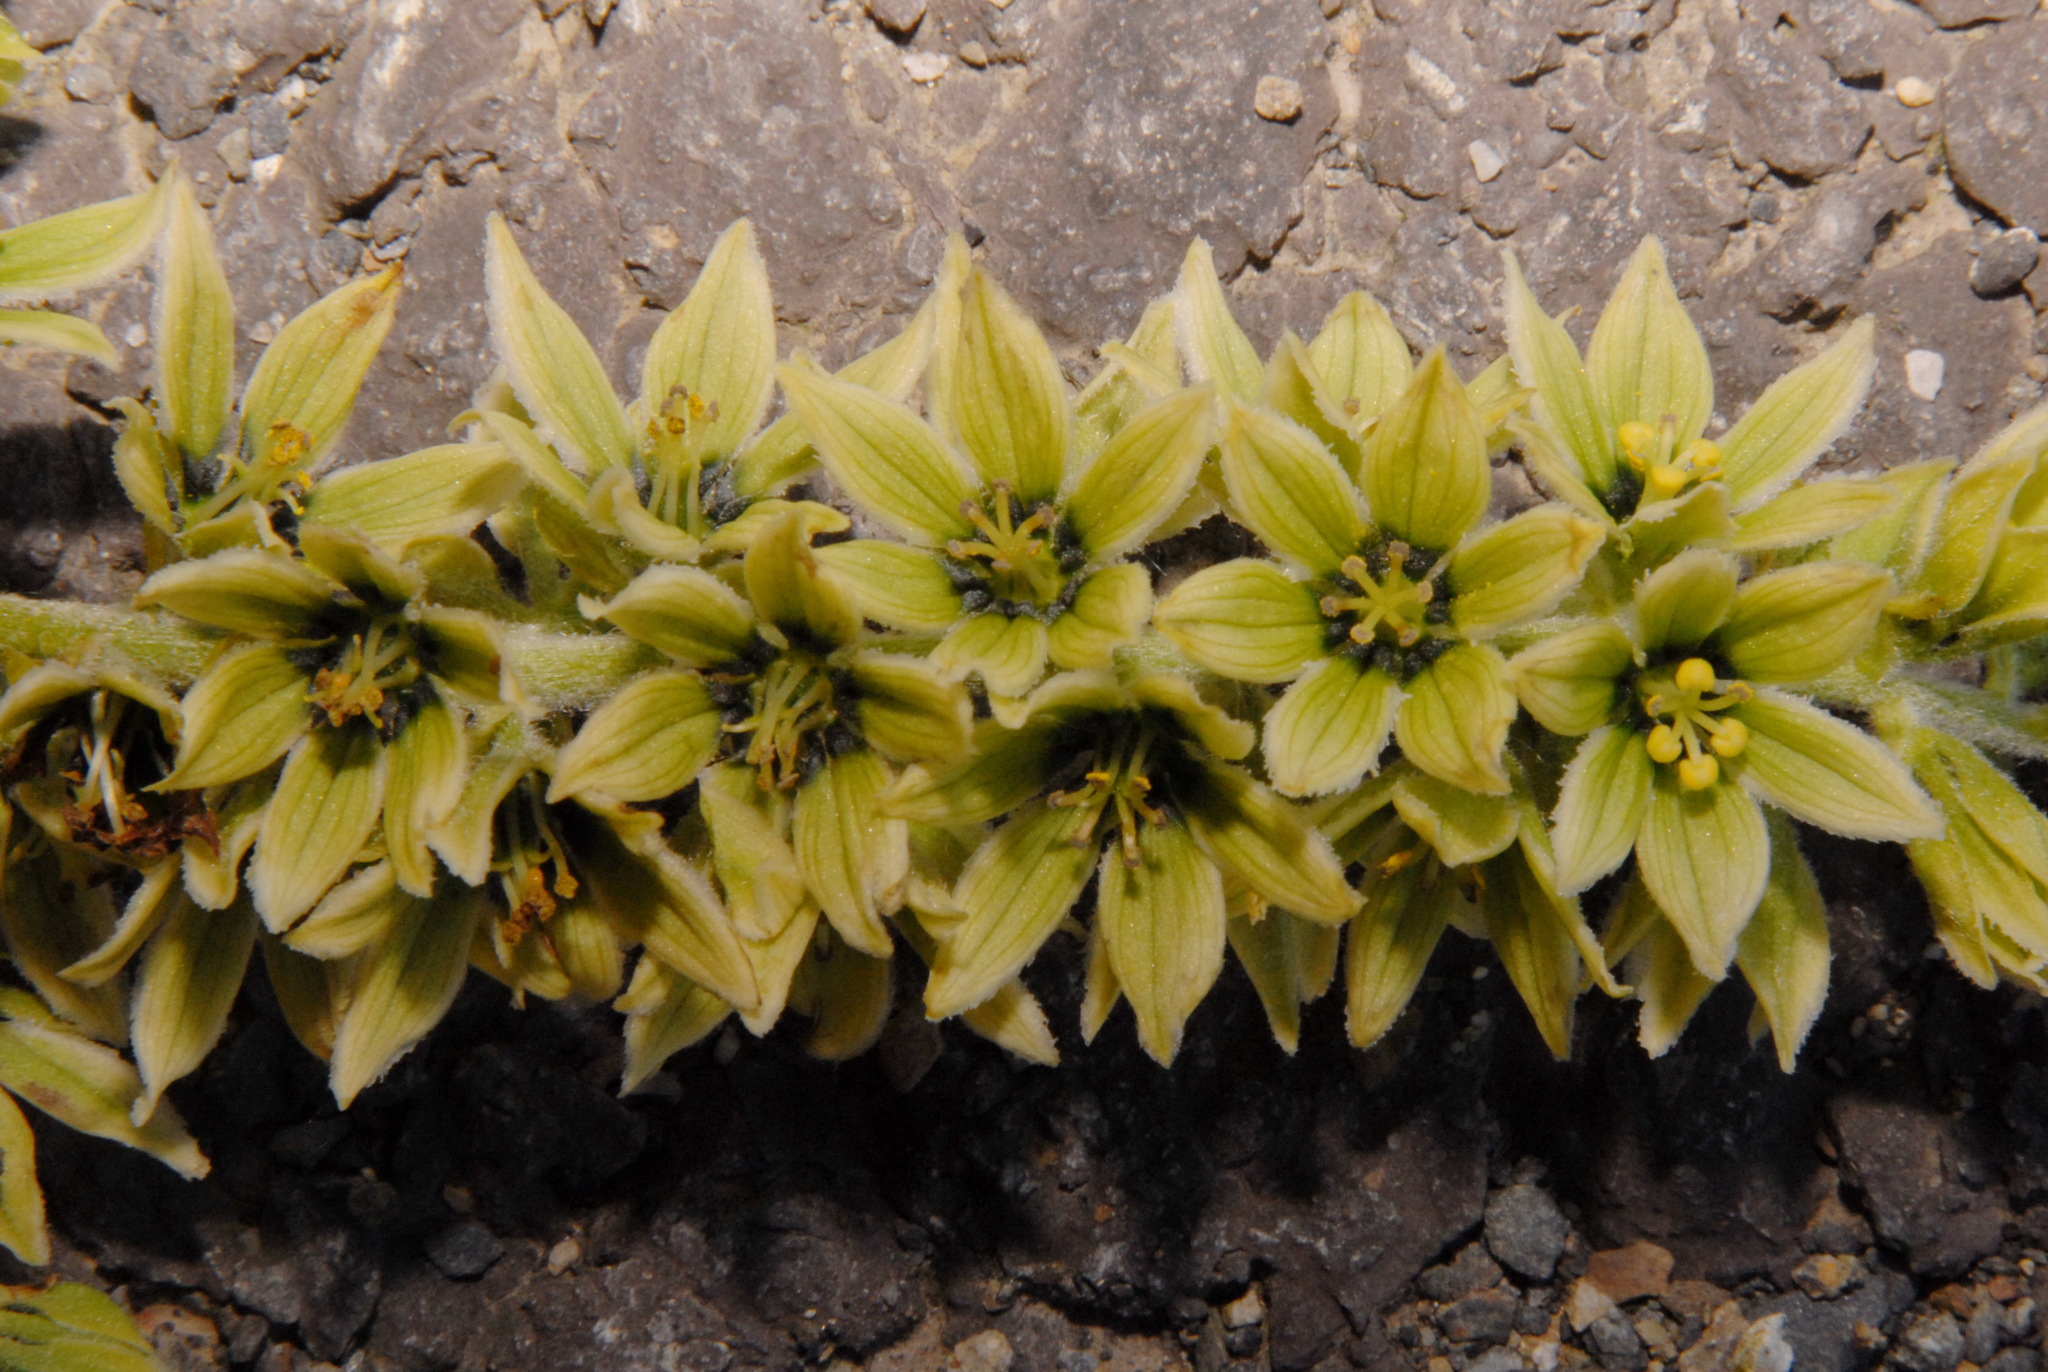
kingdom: Plantae
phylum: Tracheophyta
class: Liliopsida
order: Liliales
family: Melanthiaceae
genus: Veratrum
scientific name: Veratrum viride
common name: American false hellebore
